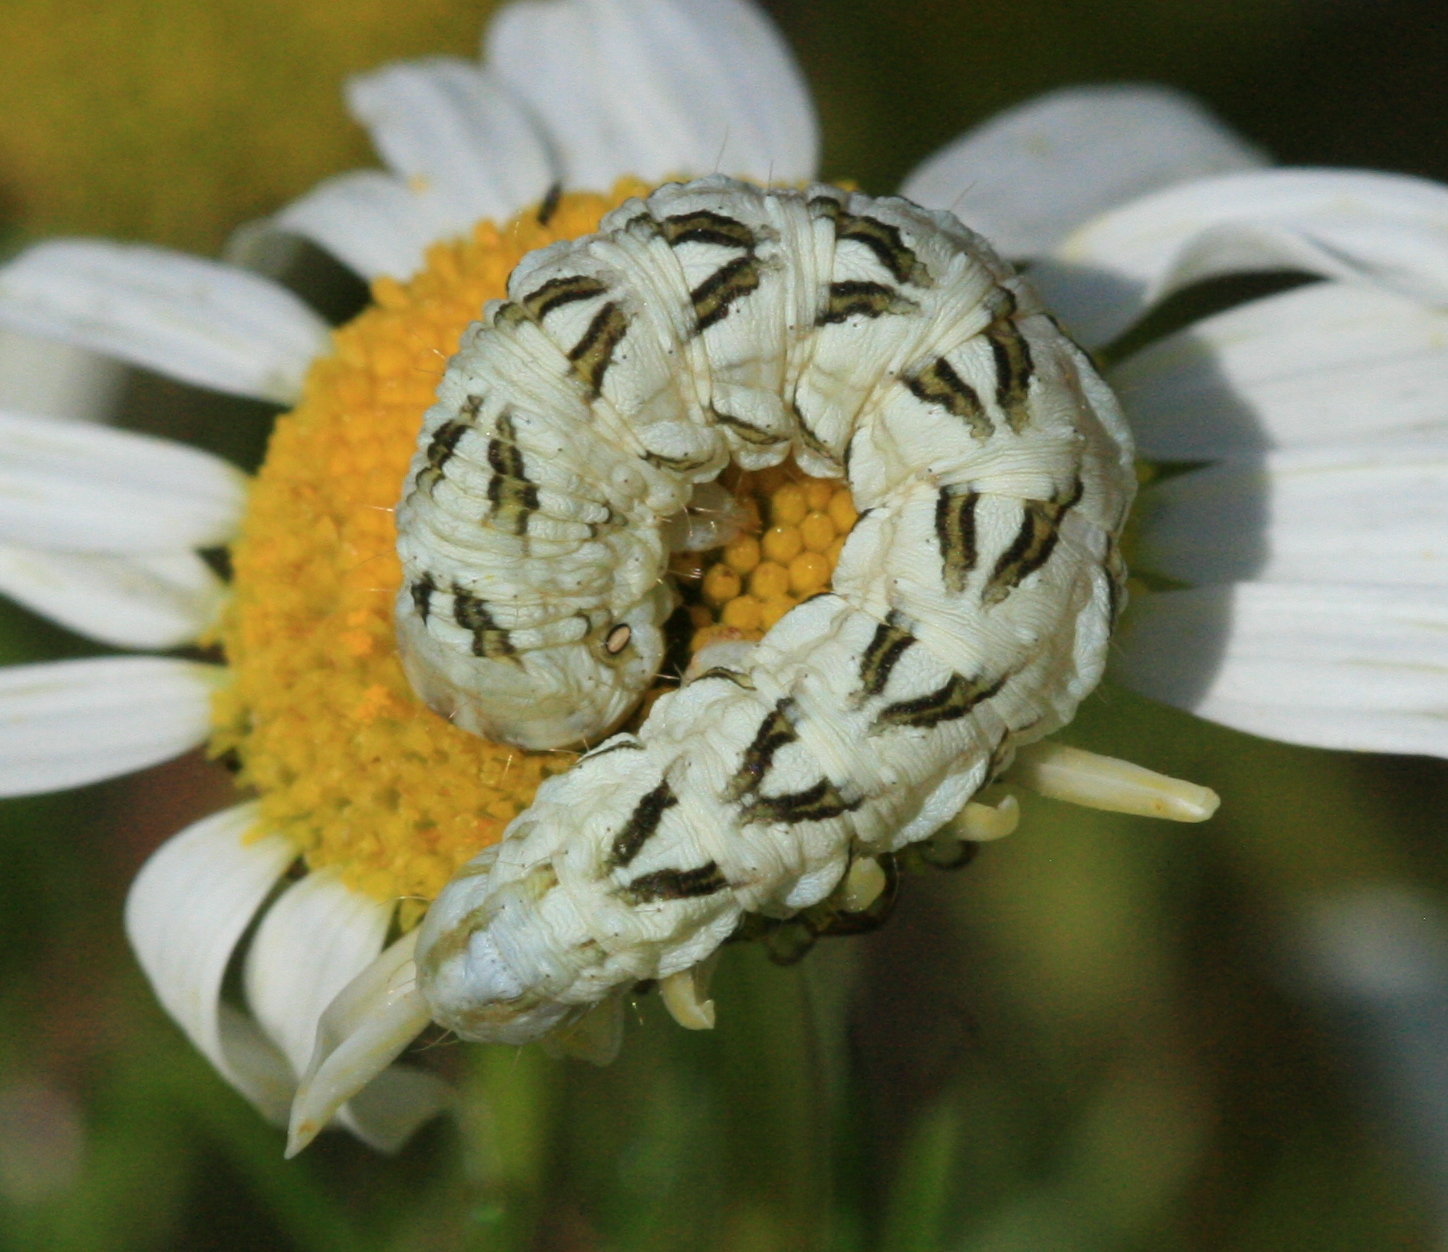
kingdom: Animalia
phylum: Arthropoda
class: Insecta
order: Lepidoptera
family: Noctuidae
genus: Cucullia
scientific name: Cucullia chamomillae
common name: Chamomile shark
